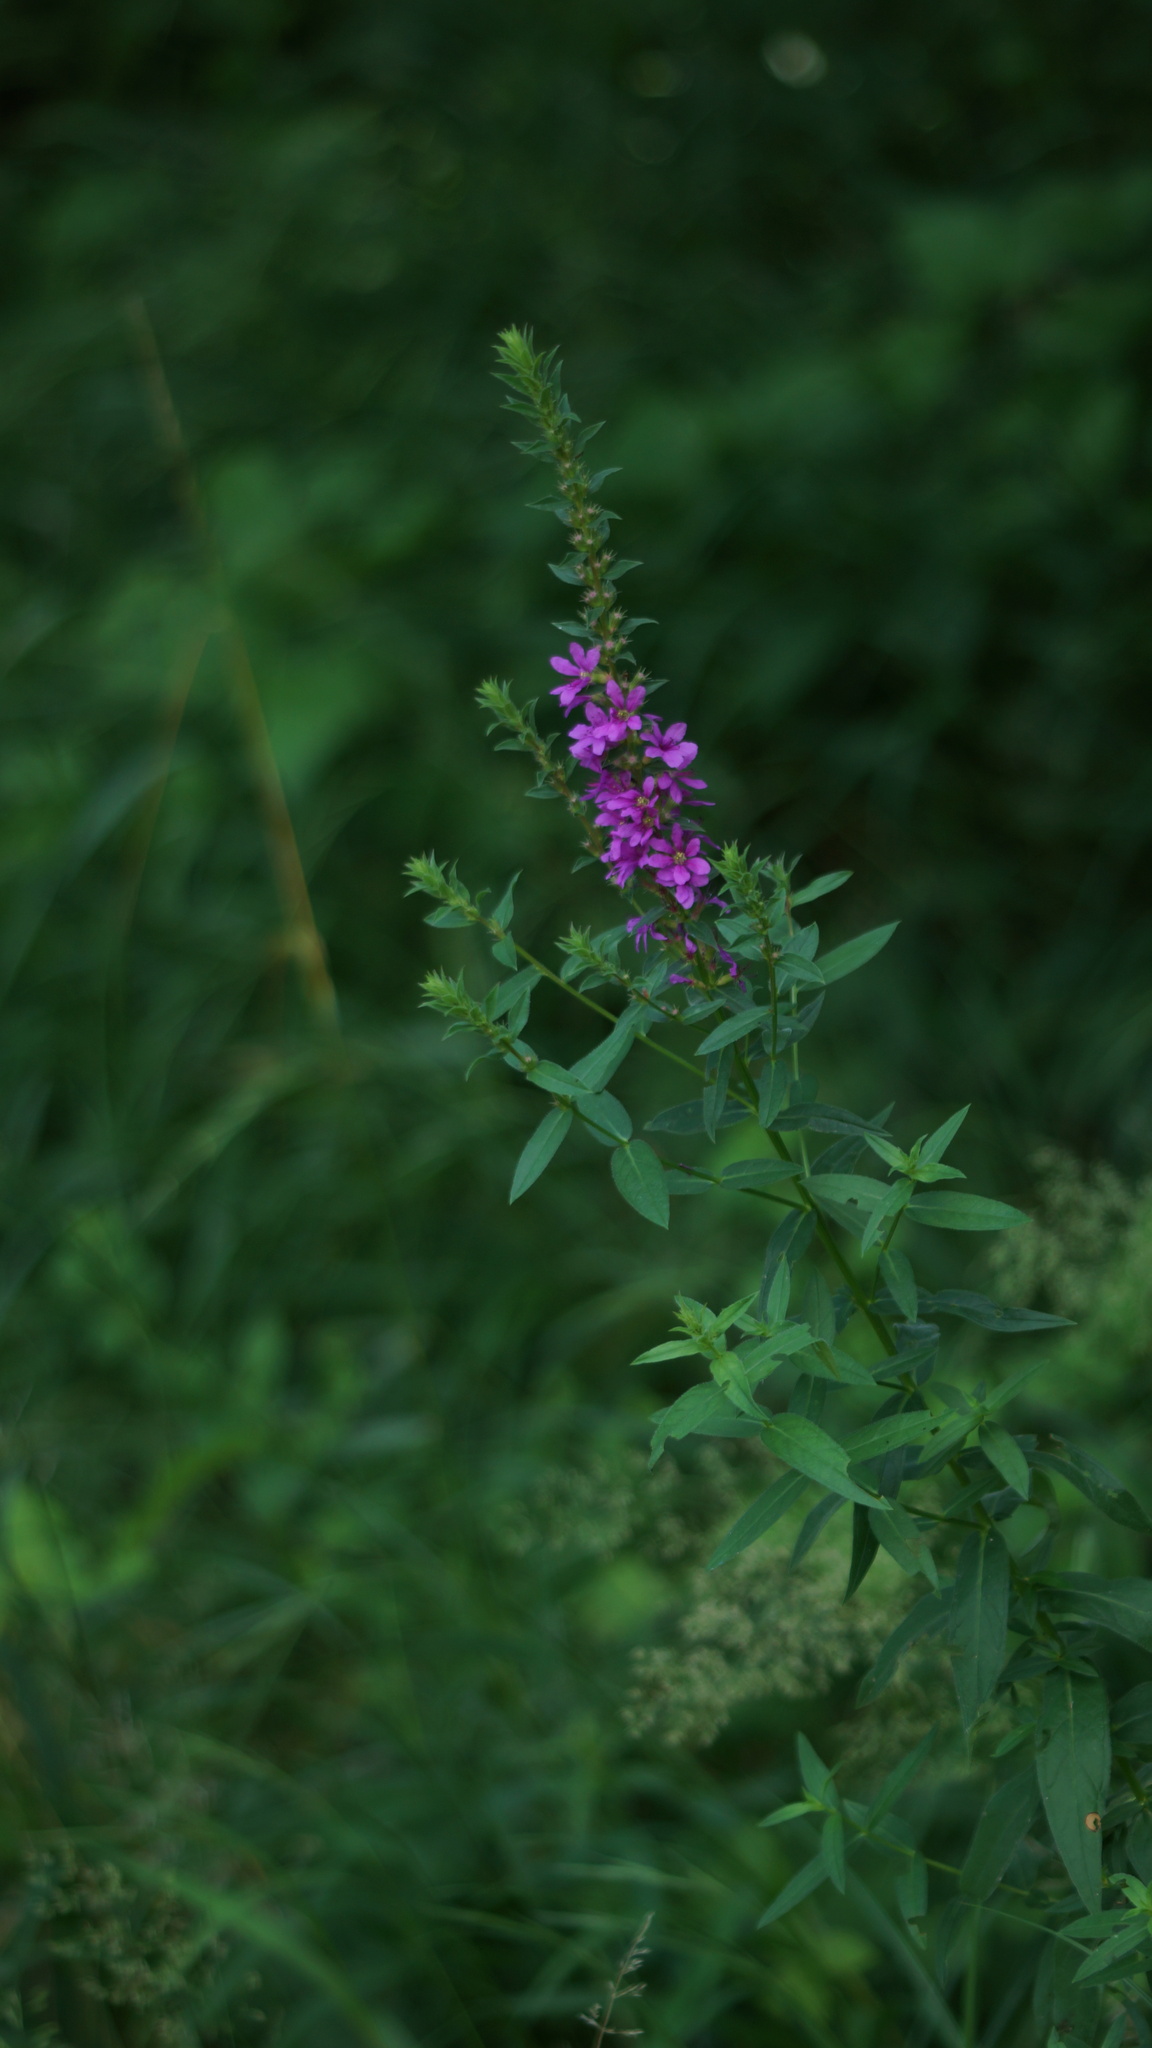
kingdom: Plantae
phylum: Tracheophyta
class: Magnoliopsida
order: Myrtales
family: Lythraceae
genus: Lythrum
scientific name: Lythrum salicaria
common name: Purple loosestrife
